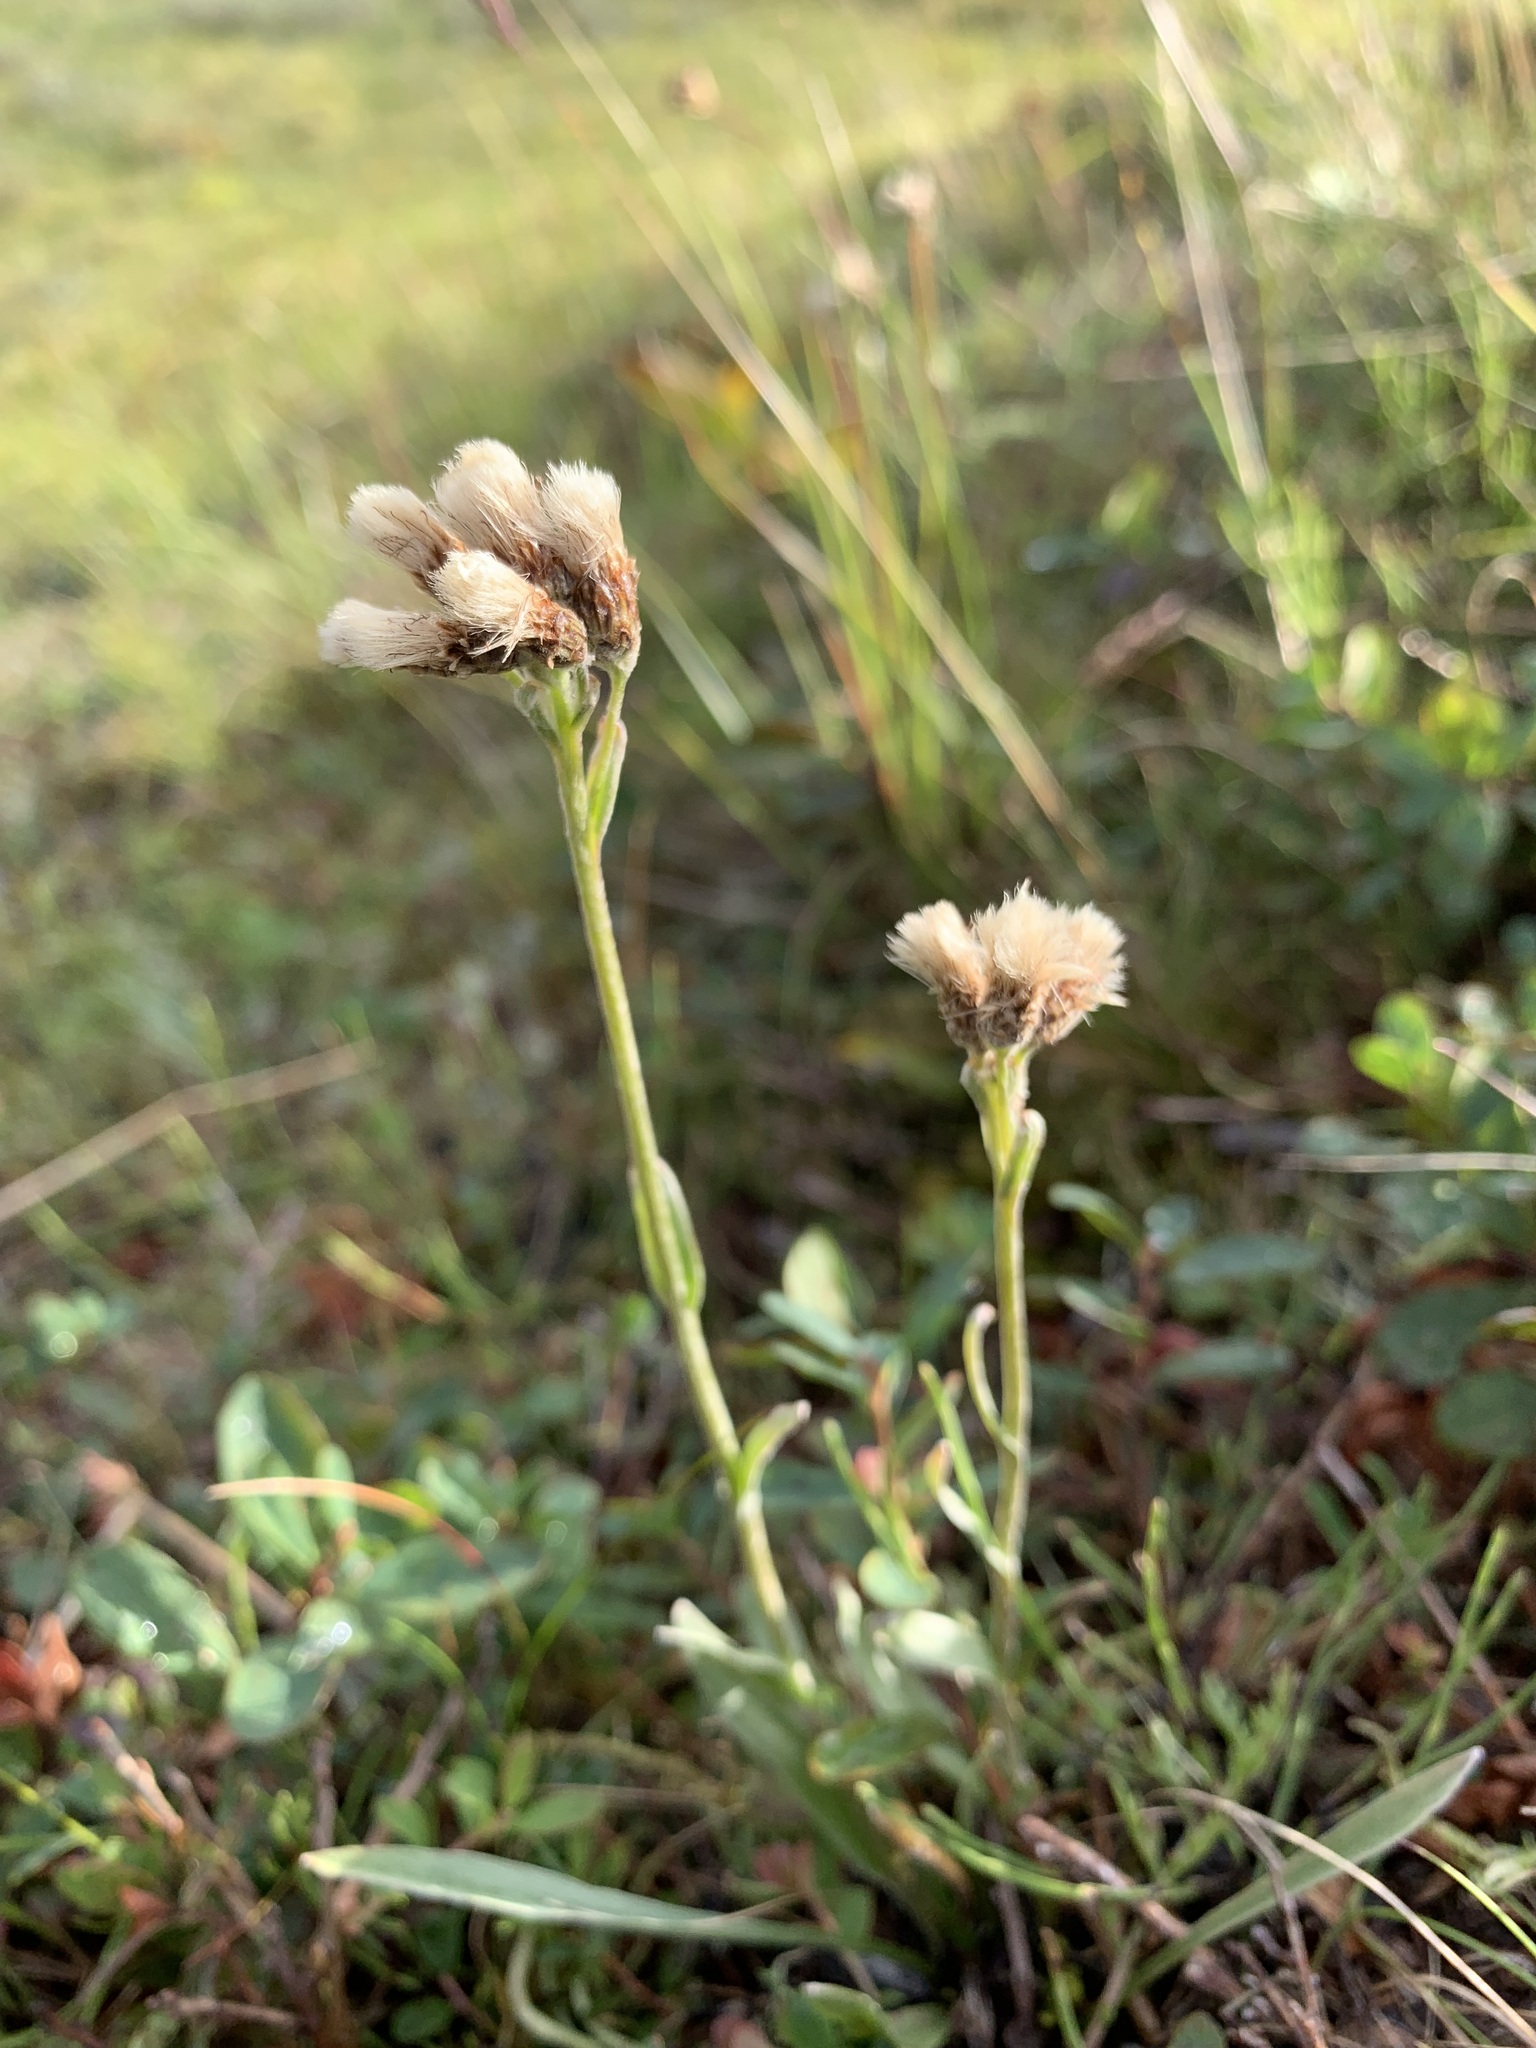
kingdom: Plantae
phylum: Tracheophyta
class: Magnoliopsida
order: Asterales
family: Asteraceae
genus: Antennaria
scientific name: Antennaria lanata
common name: Woolly pussytoes
